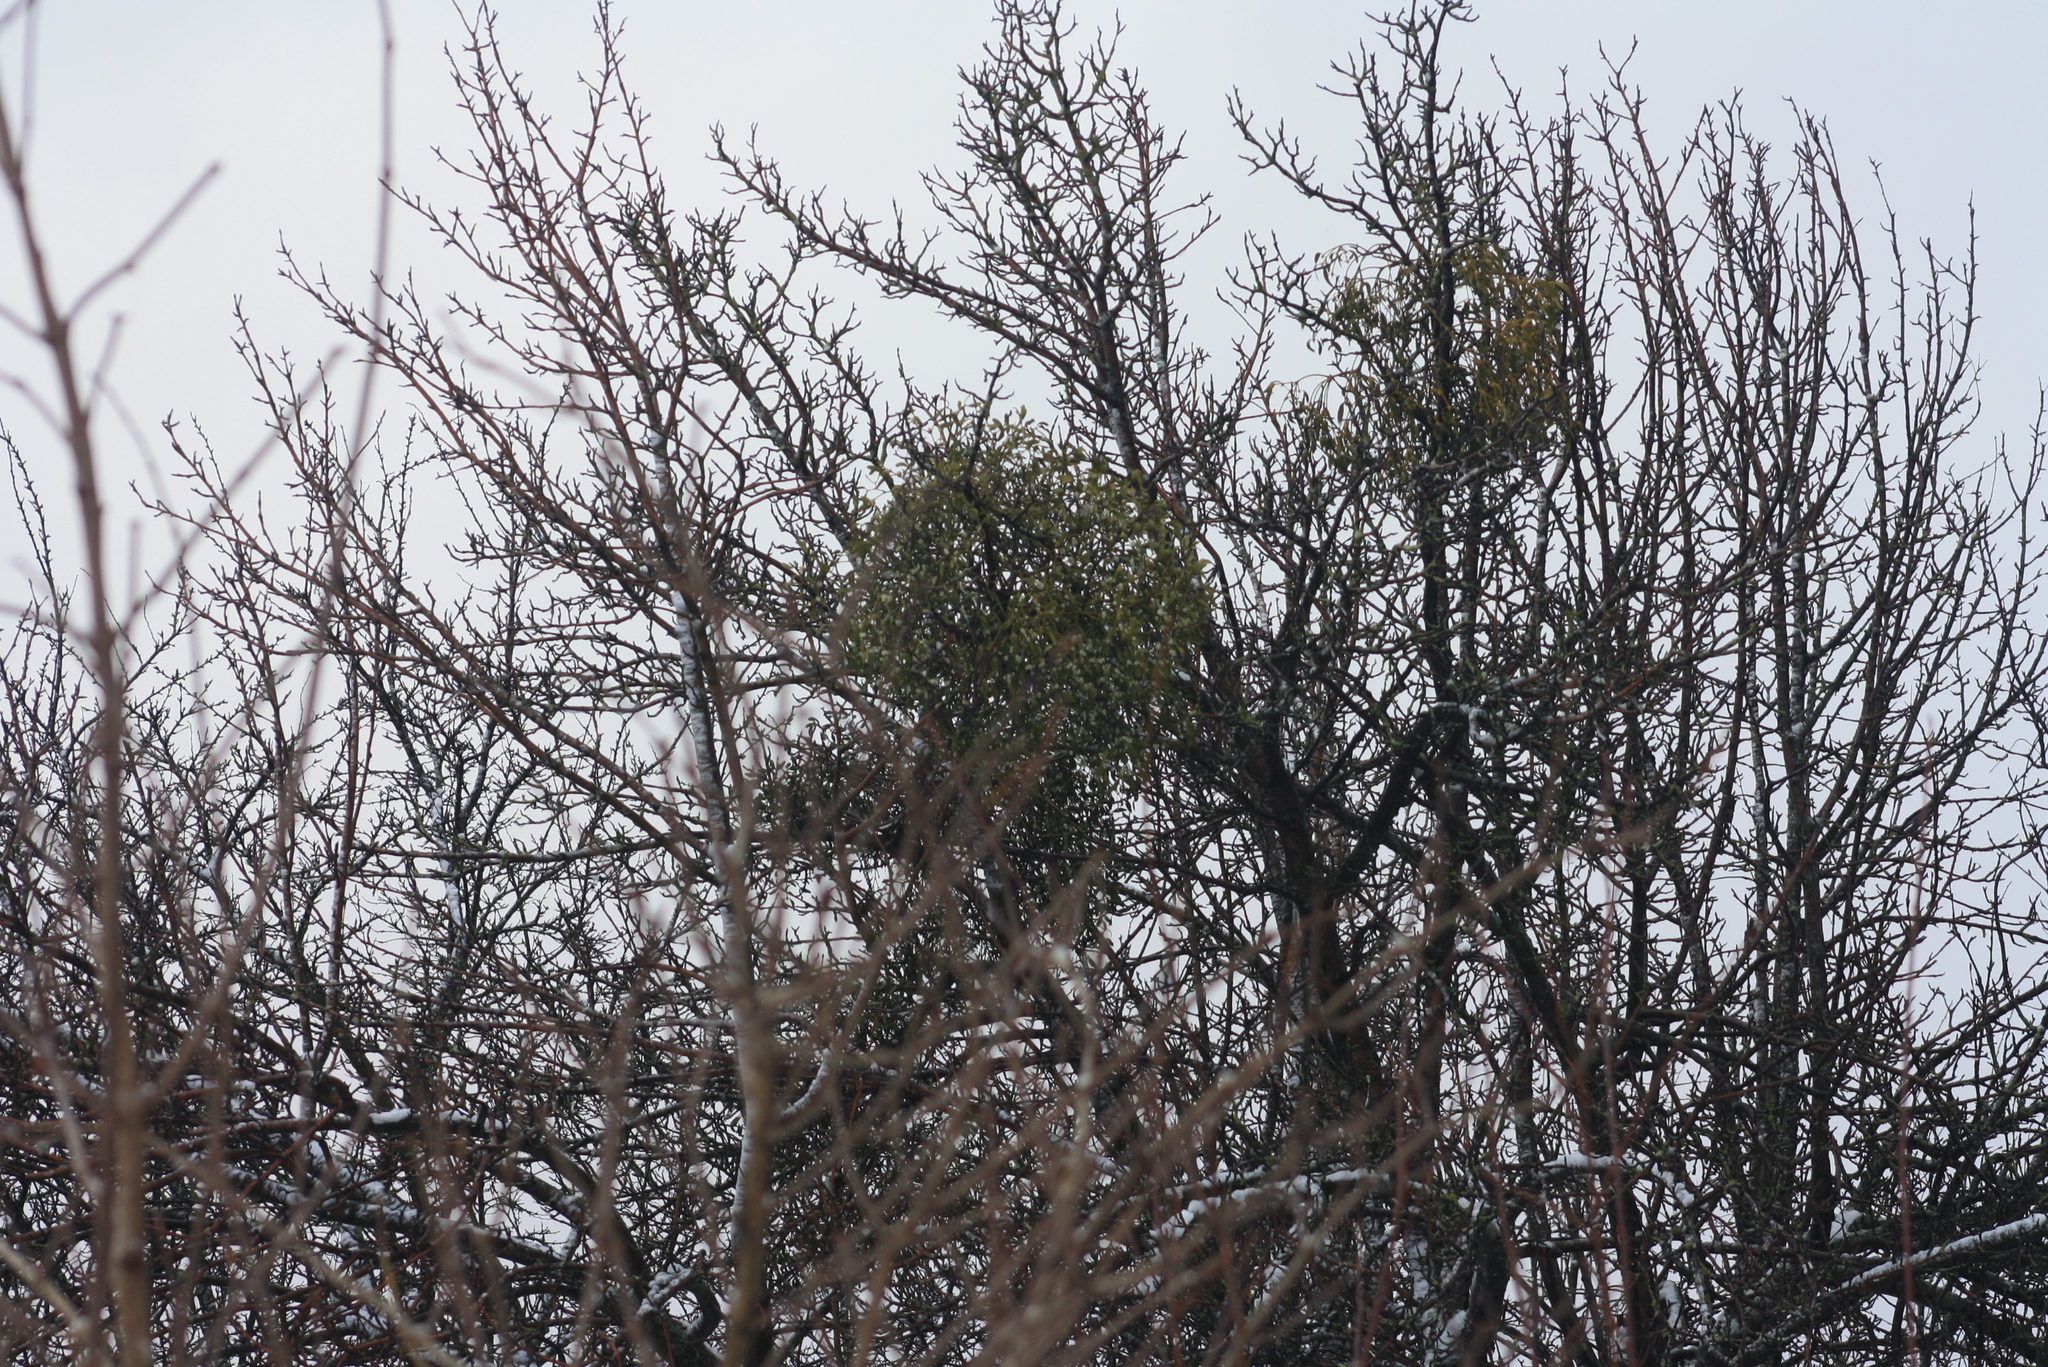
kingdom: Plantae
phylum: Tracheophyta
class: Magnoliopsida
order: Santalales
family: Viscaceae
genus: Viscum
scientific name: Viscum album
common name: Mistletoe
